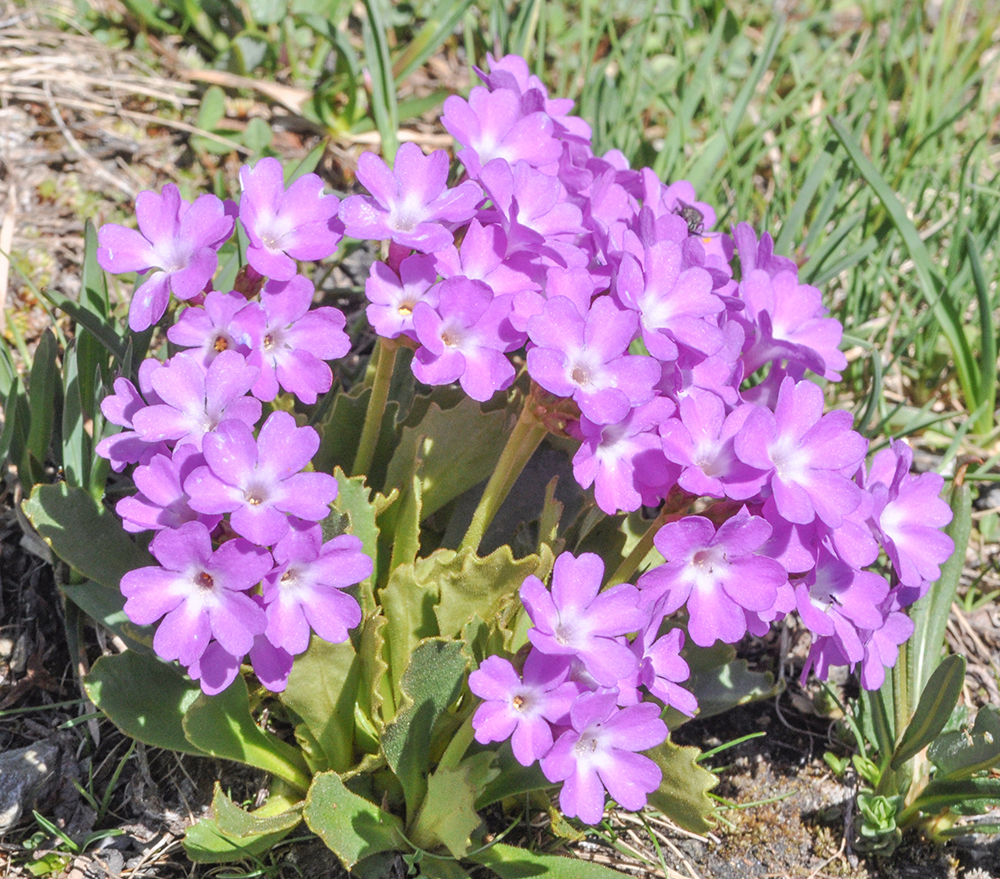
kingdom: Plantae
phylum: Tracheophyta
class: Magnoliopsida
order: Ericales
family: Primulaceae
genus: Primula
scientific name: Primula daonensis
